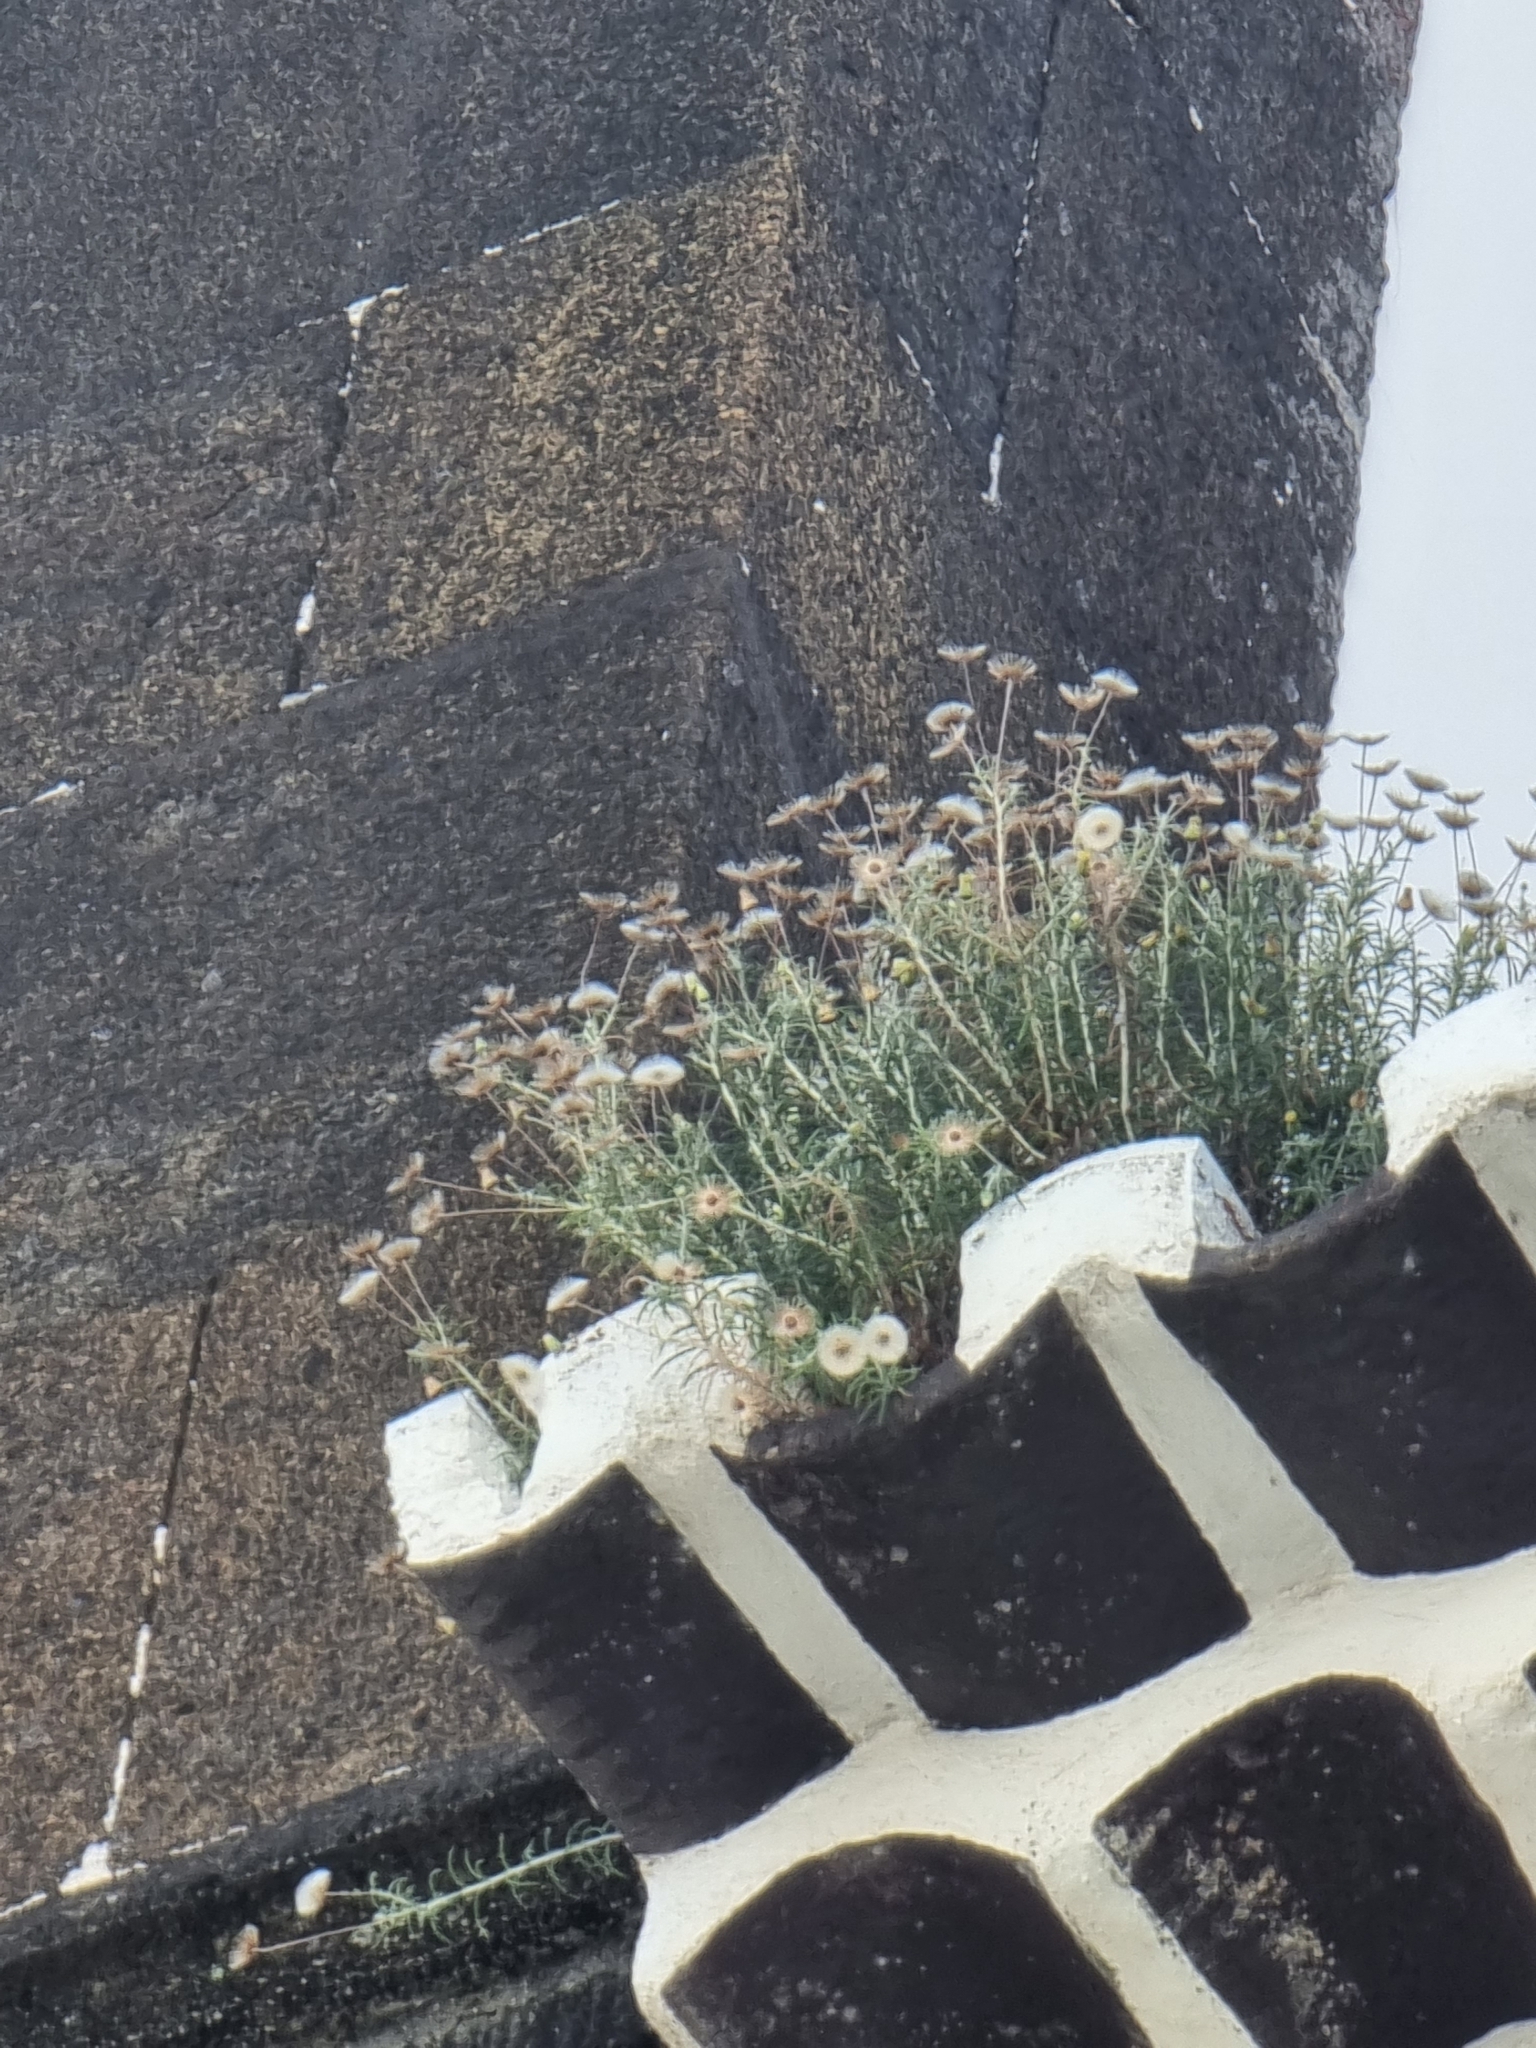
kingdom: Plantae
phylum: Tracheophyta
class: Magnoliopsida
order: Asterales
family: Asteraceae
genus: Phagnalon
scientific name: Phagnalon saxatile
